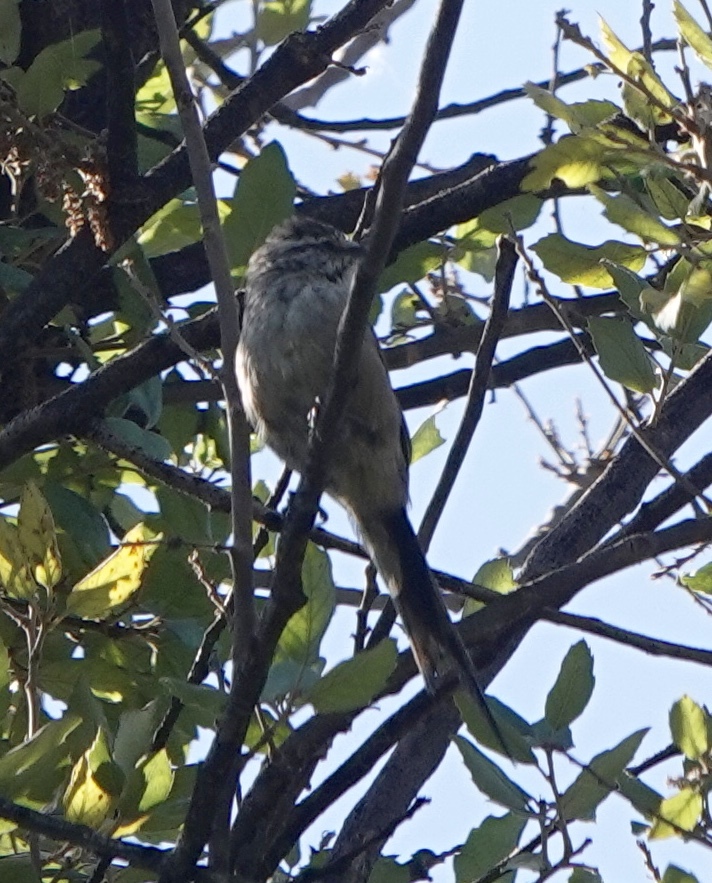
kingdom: Animalia
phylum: Chordata
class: Aves
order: Passeriformes
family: Furnariidae
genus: Leptasthenura
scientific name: Leptasthenura aegithaloides
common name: Plain-mantled tit-spinetail
